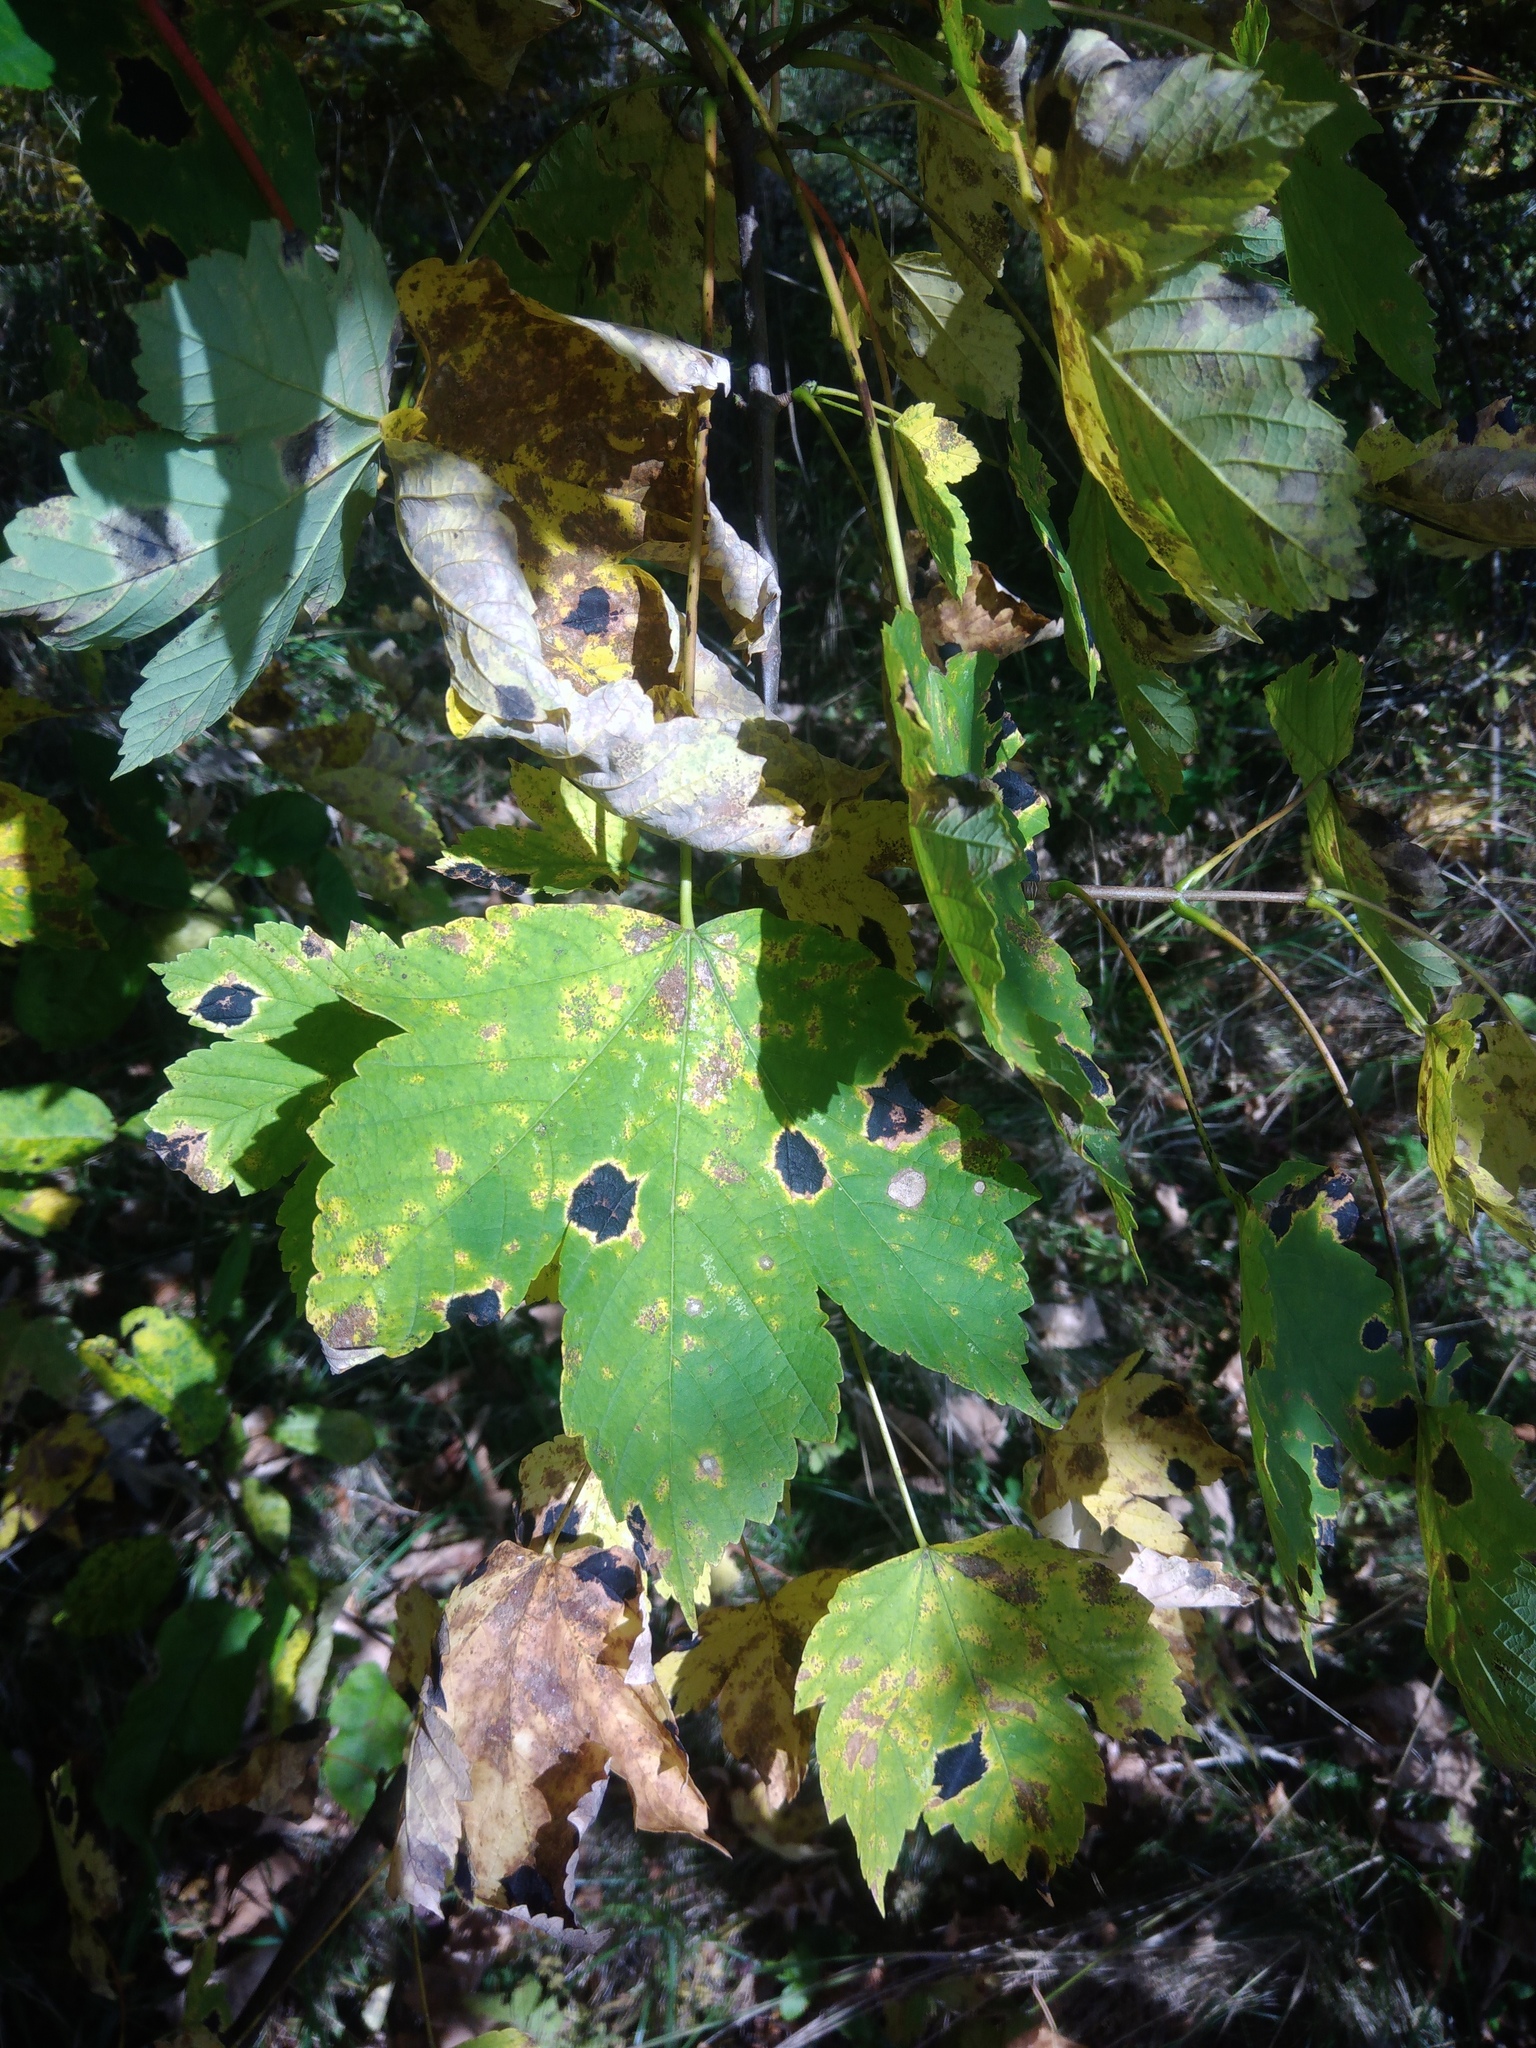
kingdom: Fungi
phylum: Ascomycota
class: Leotiomycetes
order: Rhytismatales
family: Rhytismataceae
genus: Rhytisma
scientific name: Rhytisma acerinum
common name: European tar spot
